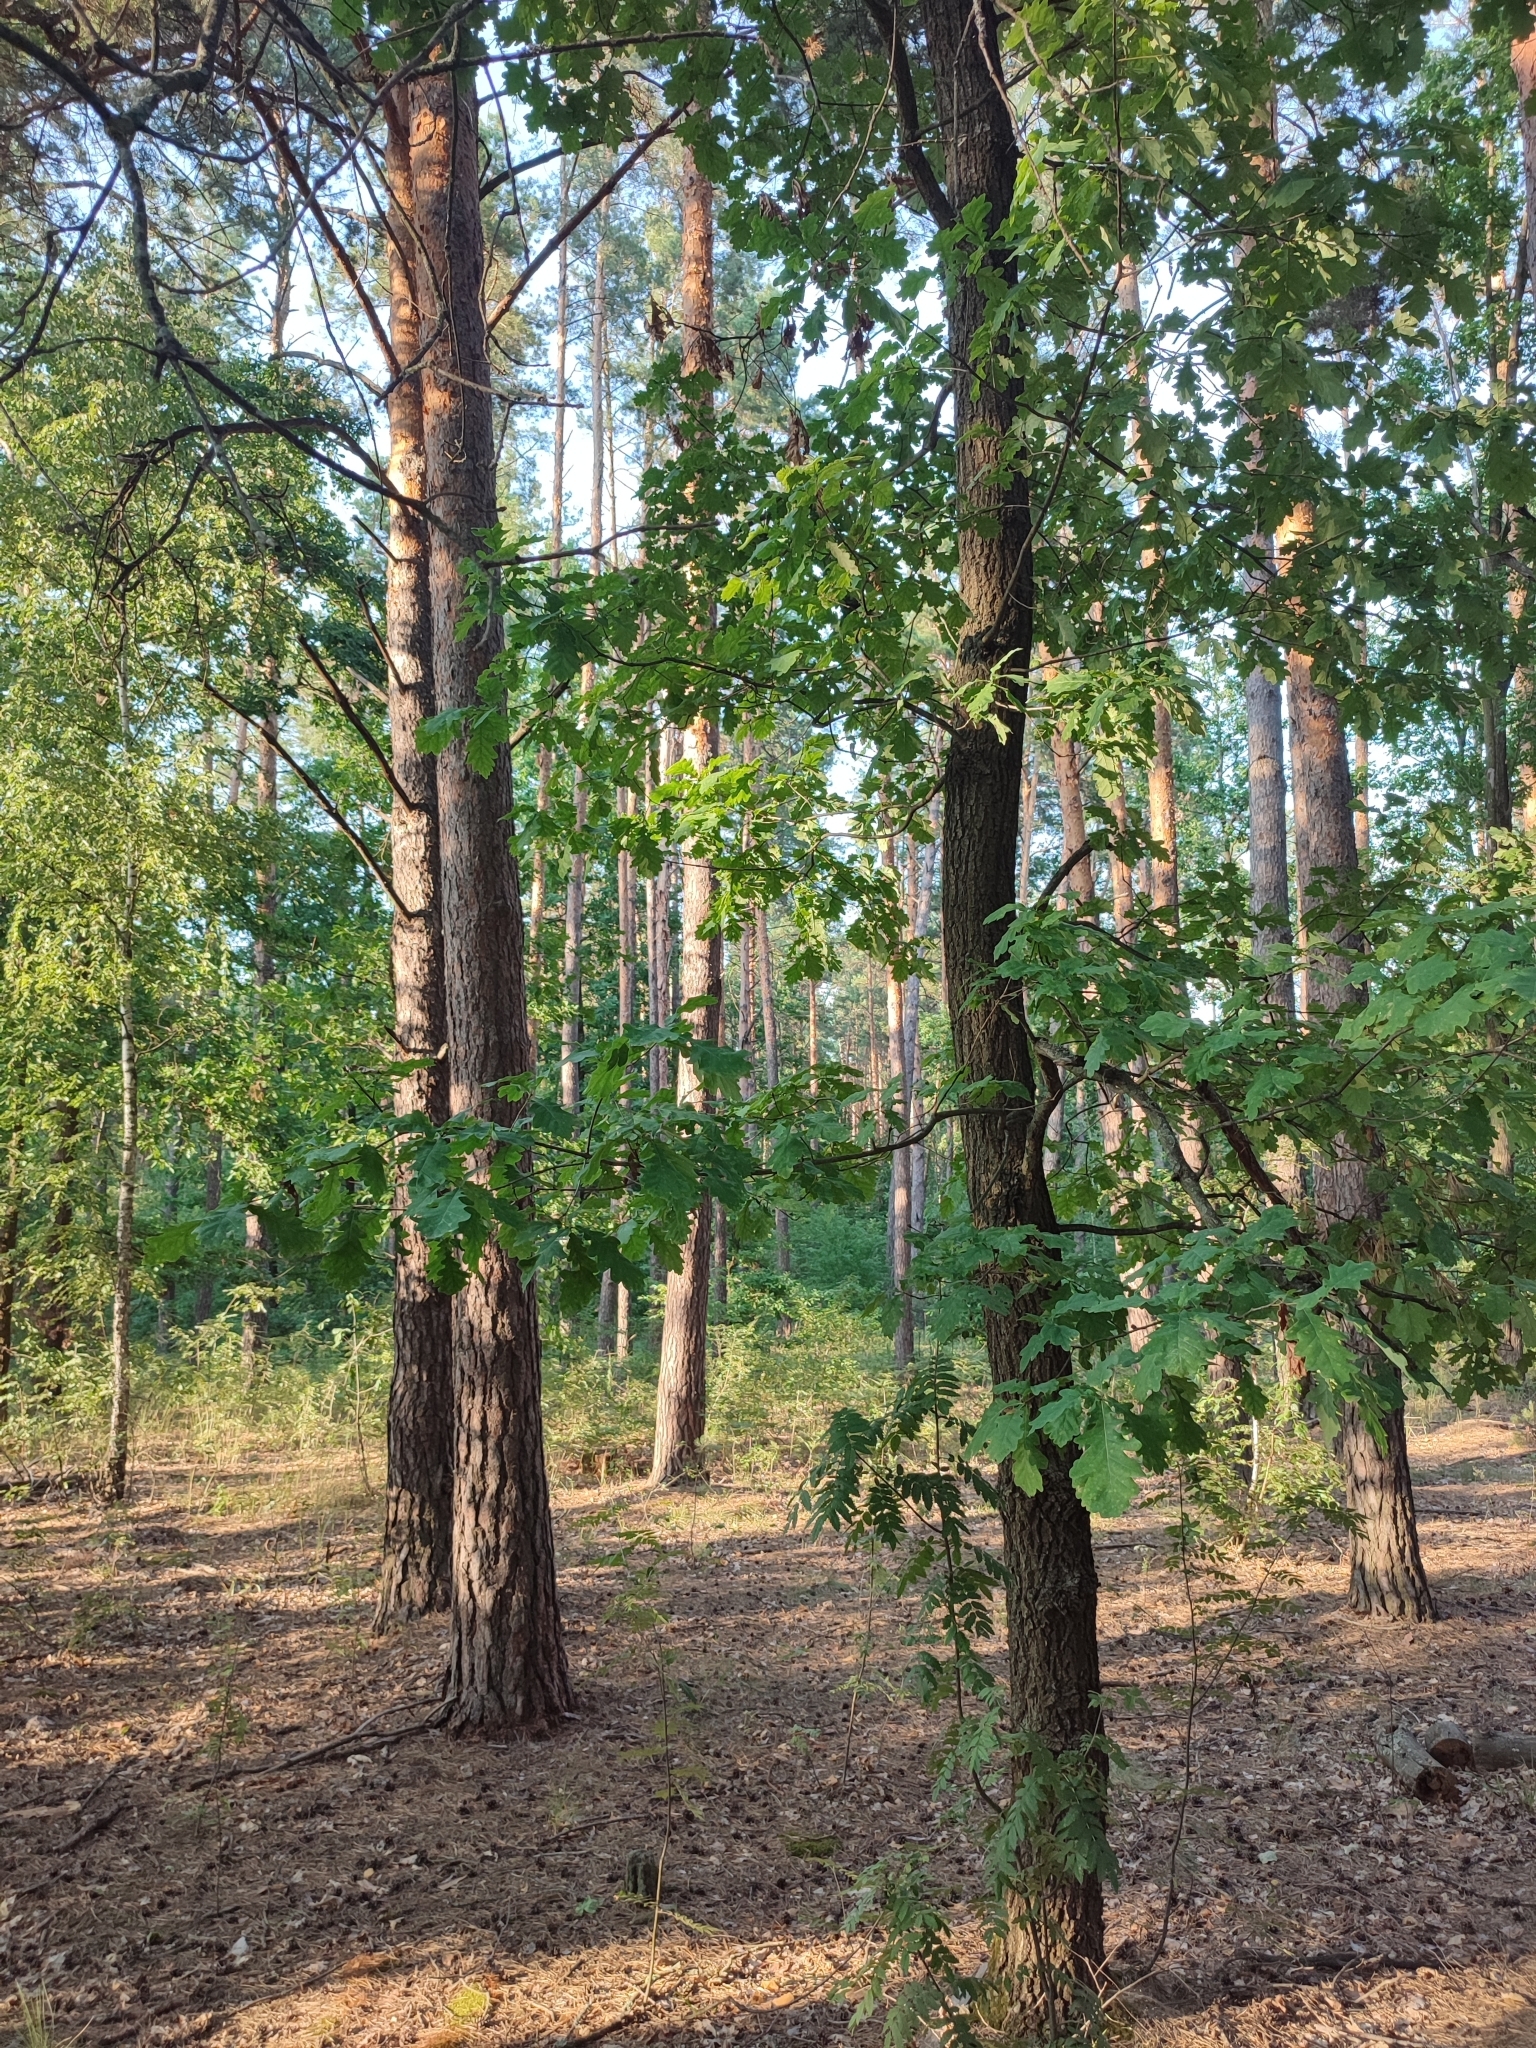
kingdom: Plantae
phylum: Tracheophyta
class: Magnoliopsida
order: Fagales
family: Fagaceae
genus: Quercus
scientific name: Quercus robur
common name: Pedunculate oak
